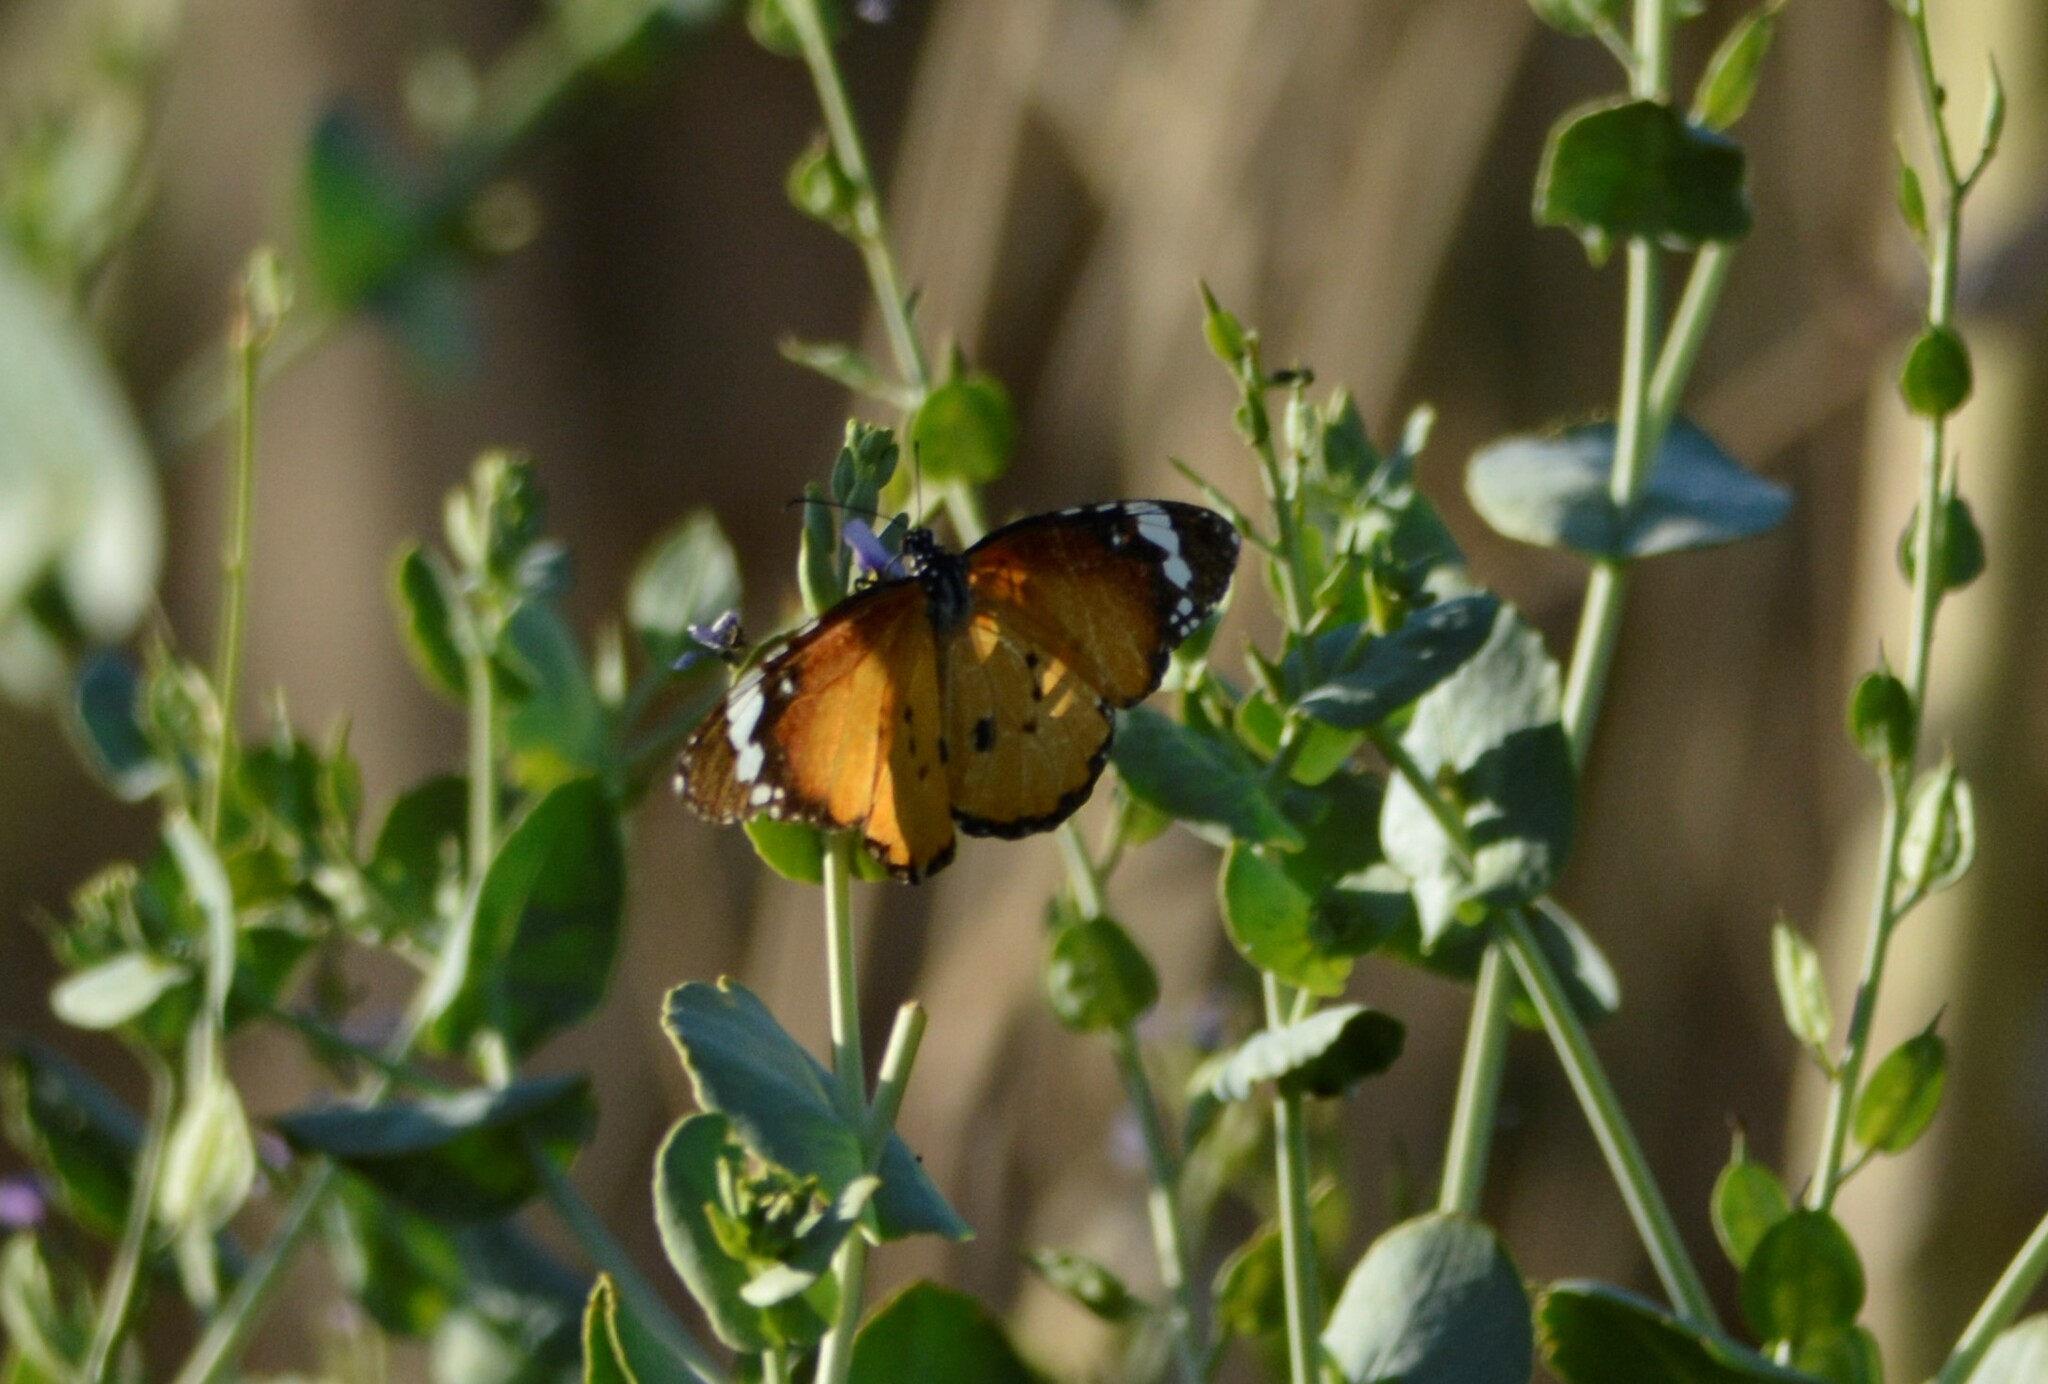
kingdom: Animalia
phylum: Arthropoda
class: Insecta
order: Lepidoptera
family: Nymphalidae
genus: Danaus
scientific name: Danaus chrysippus
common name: Plain tiger
